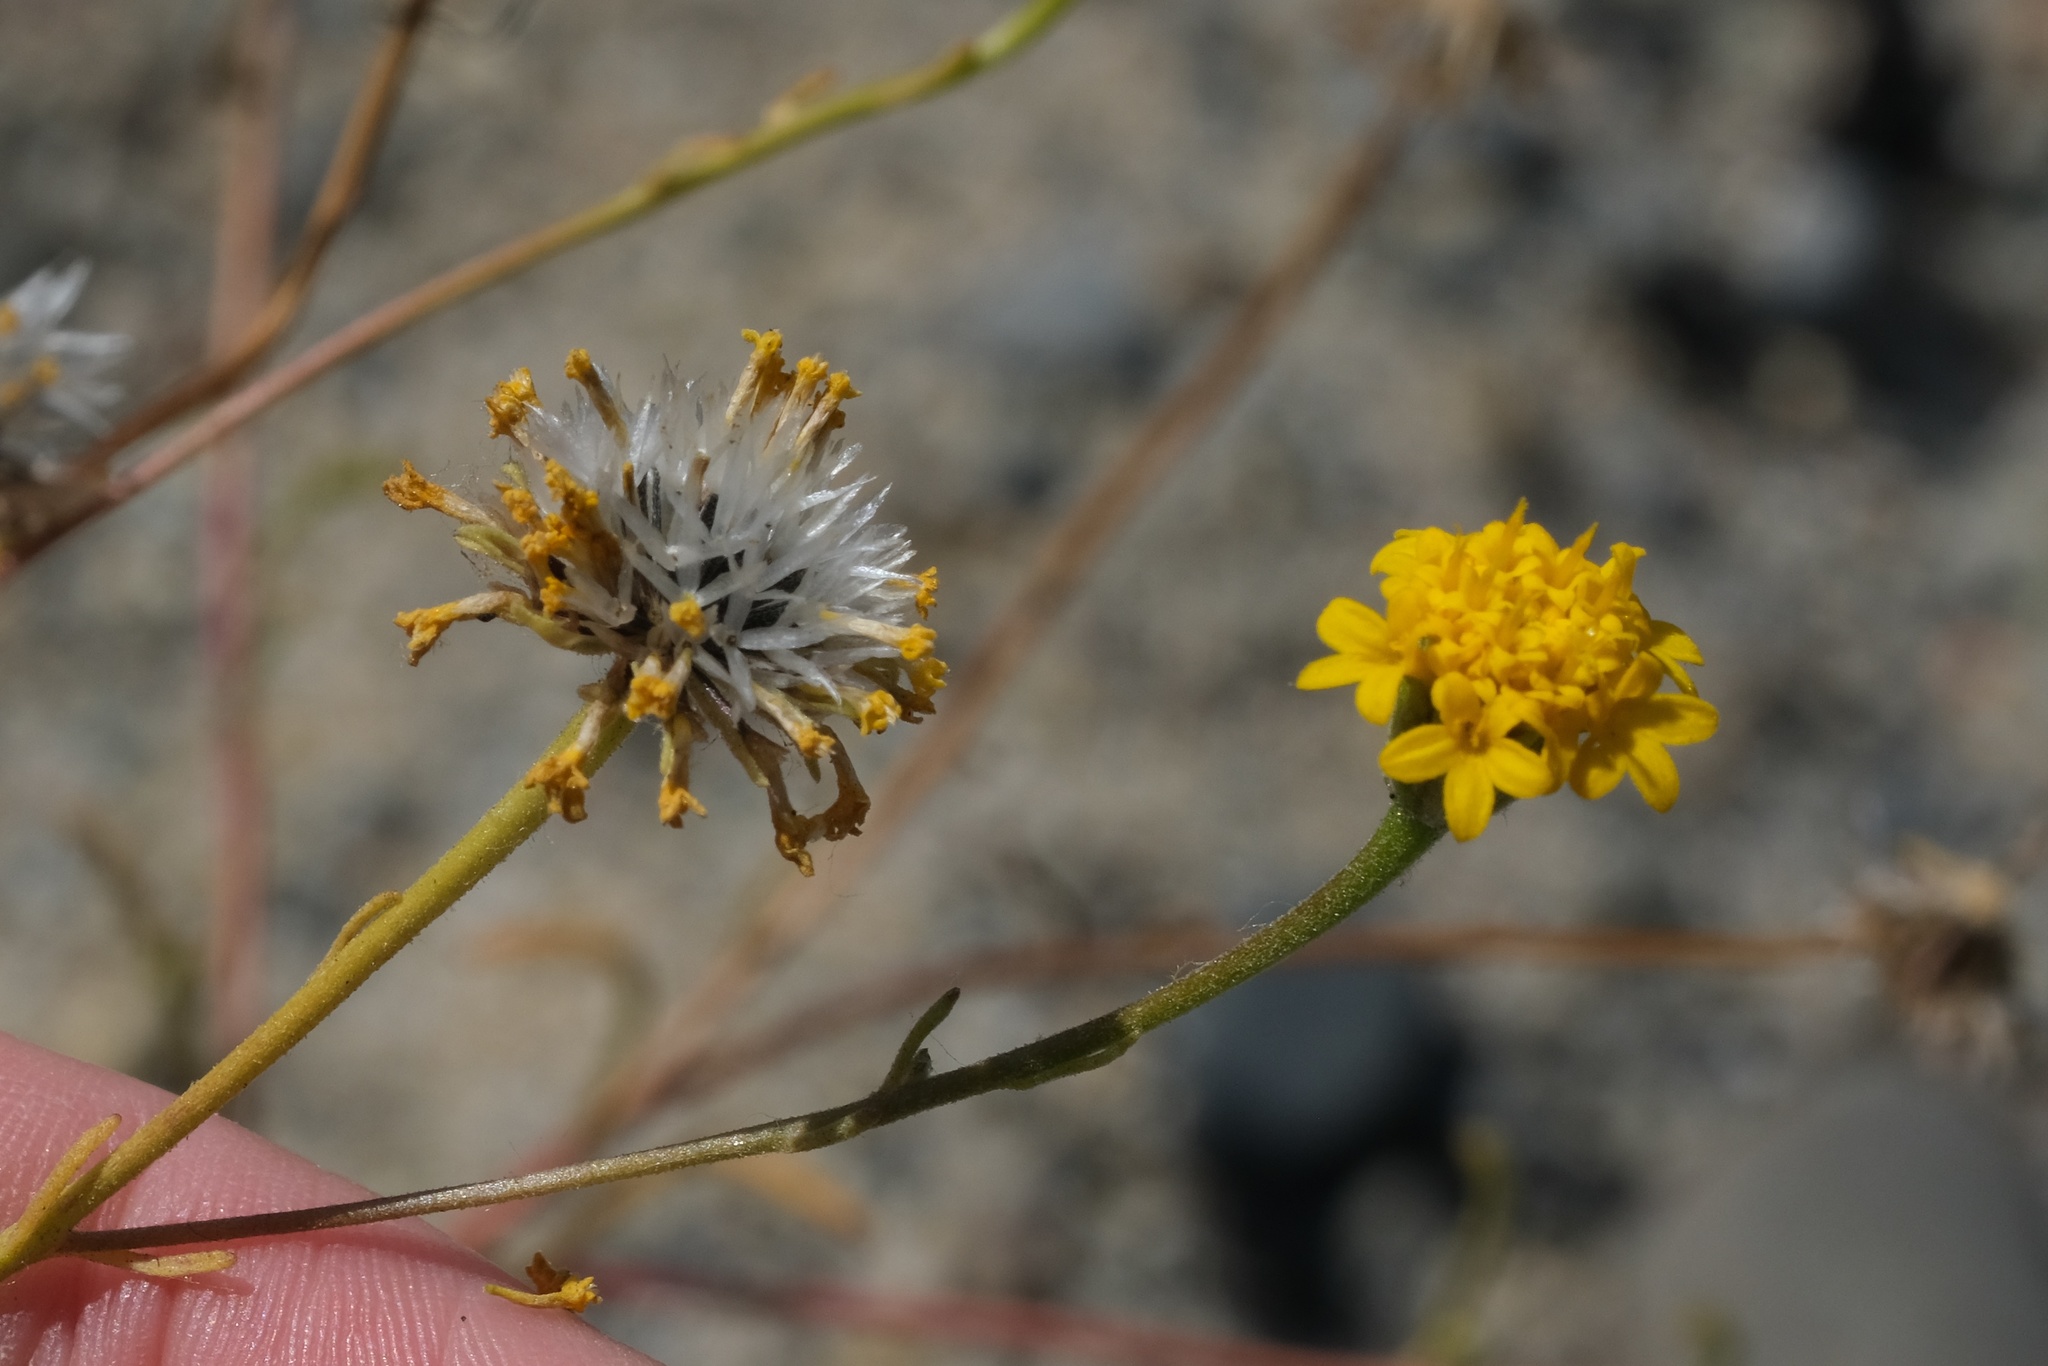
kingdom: Plantae
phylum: Tracheophyta
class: Magnoliopsida
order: Asterales
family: Asteraceae
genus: Chaenactis
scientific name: Chaenactis glabriuscula
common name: Yellow pincushion
